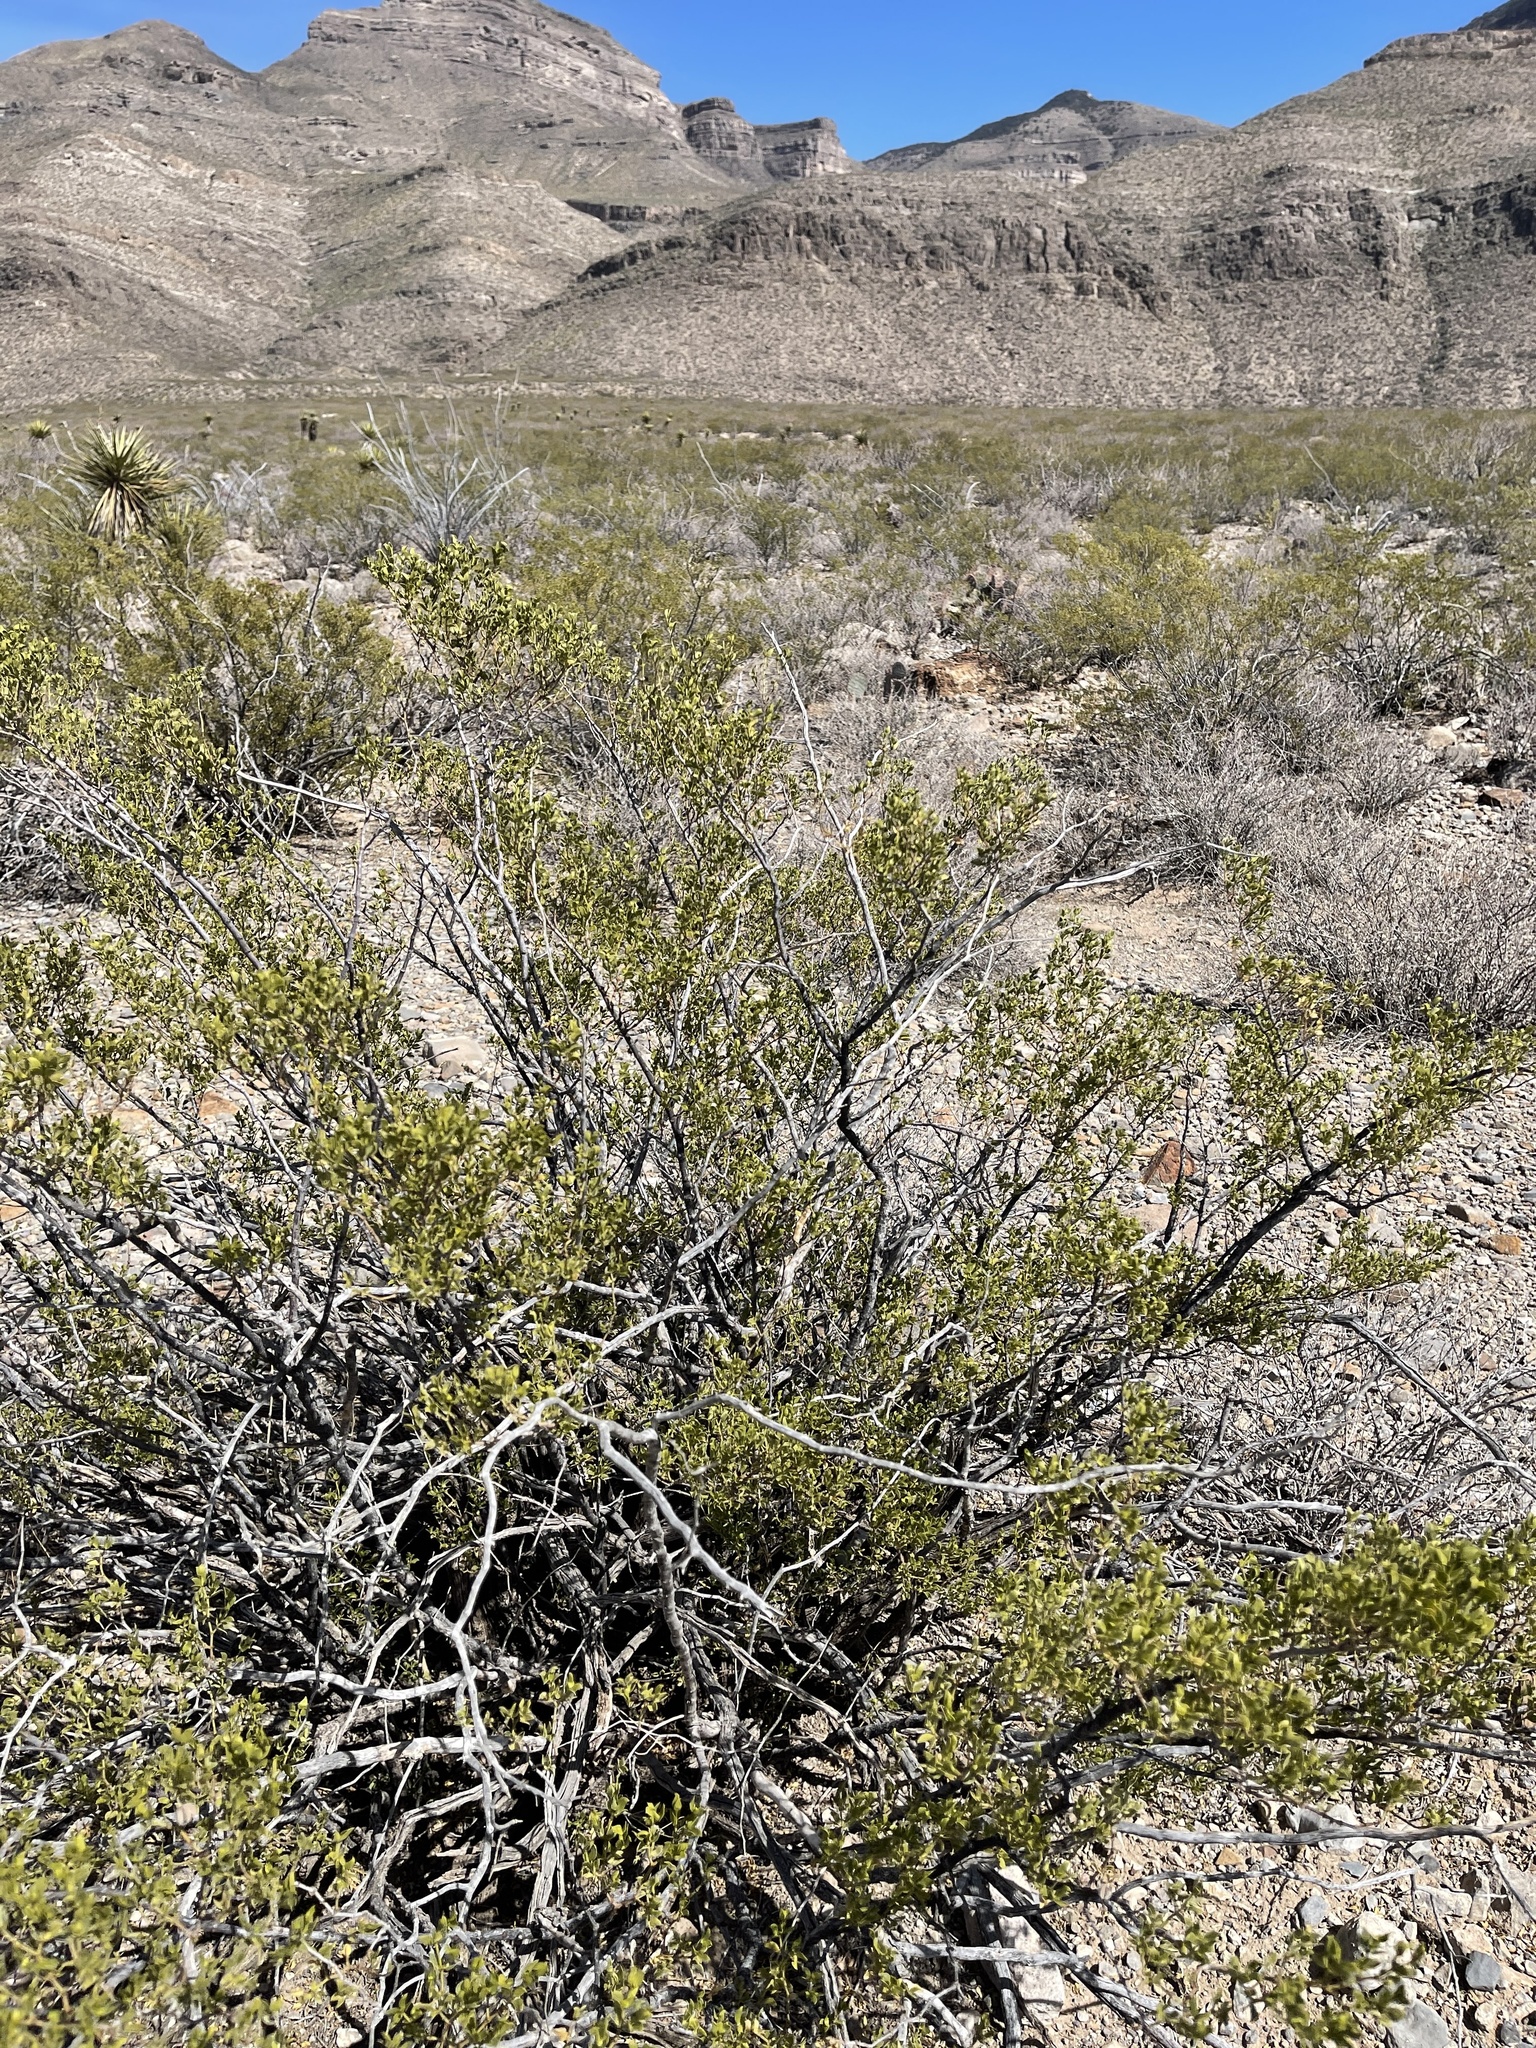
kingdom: Plantae
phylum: Tracheophyta
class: Magnoliopsida
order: Zygophyllales
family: Zygophyllaceae
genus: Larrea
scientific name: Larrea tridentata
